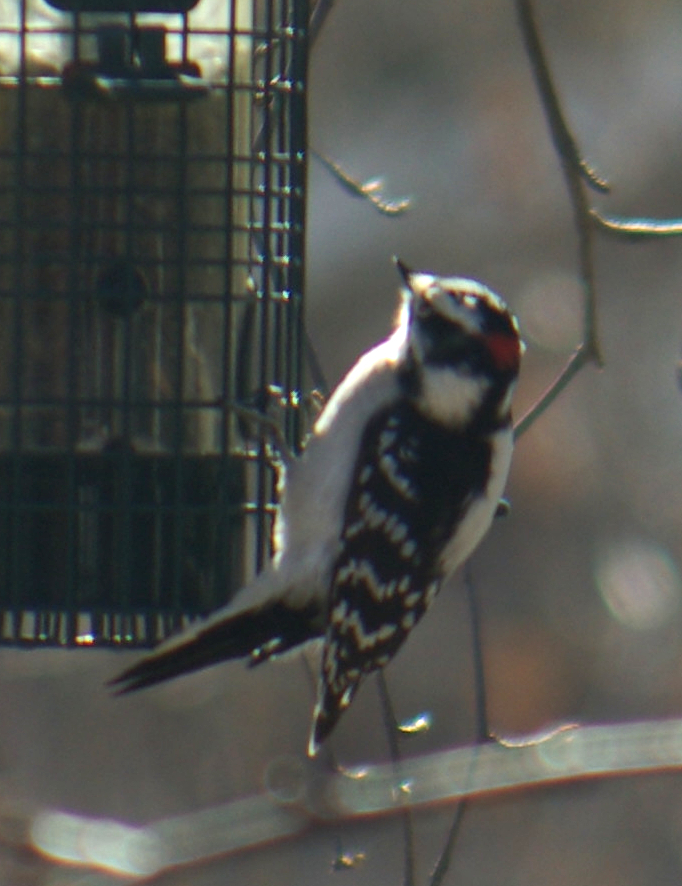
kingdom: Animalia
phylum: Chordata
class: Aves
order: Piciformes
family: Picidae
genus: Dryobates
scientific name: Dryobates pubescens
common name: Downy woodpecker
